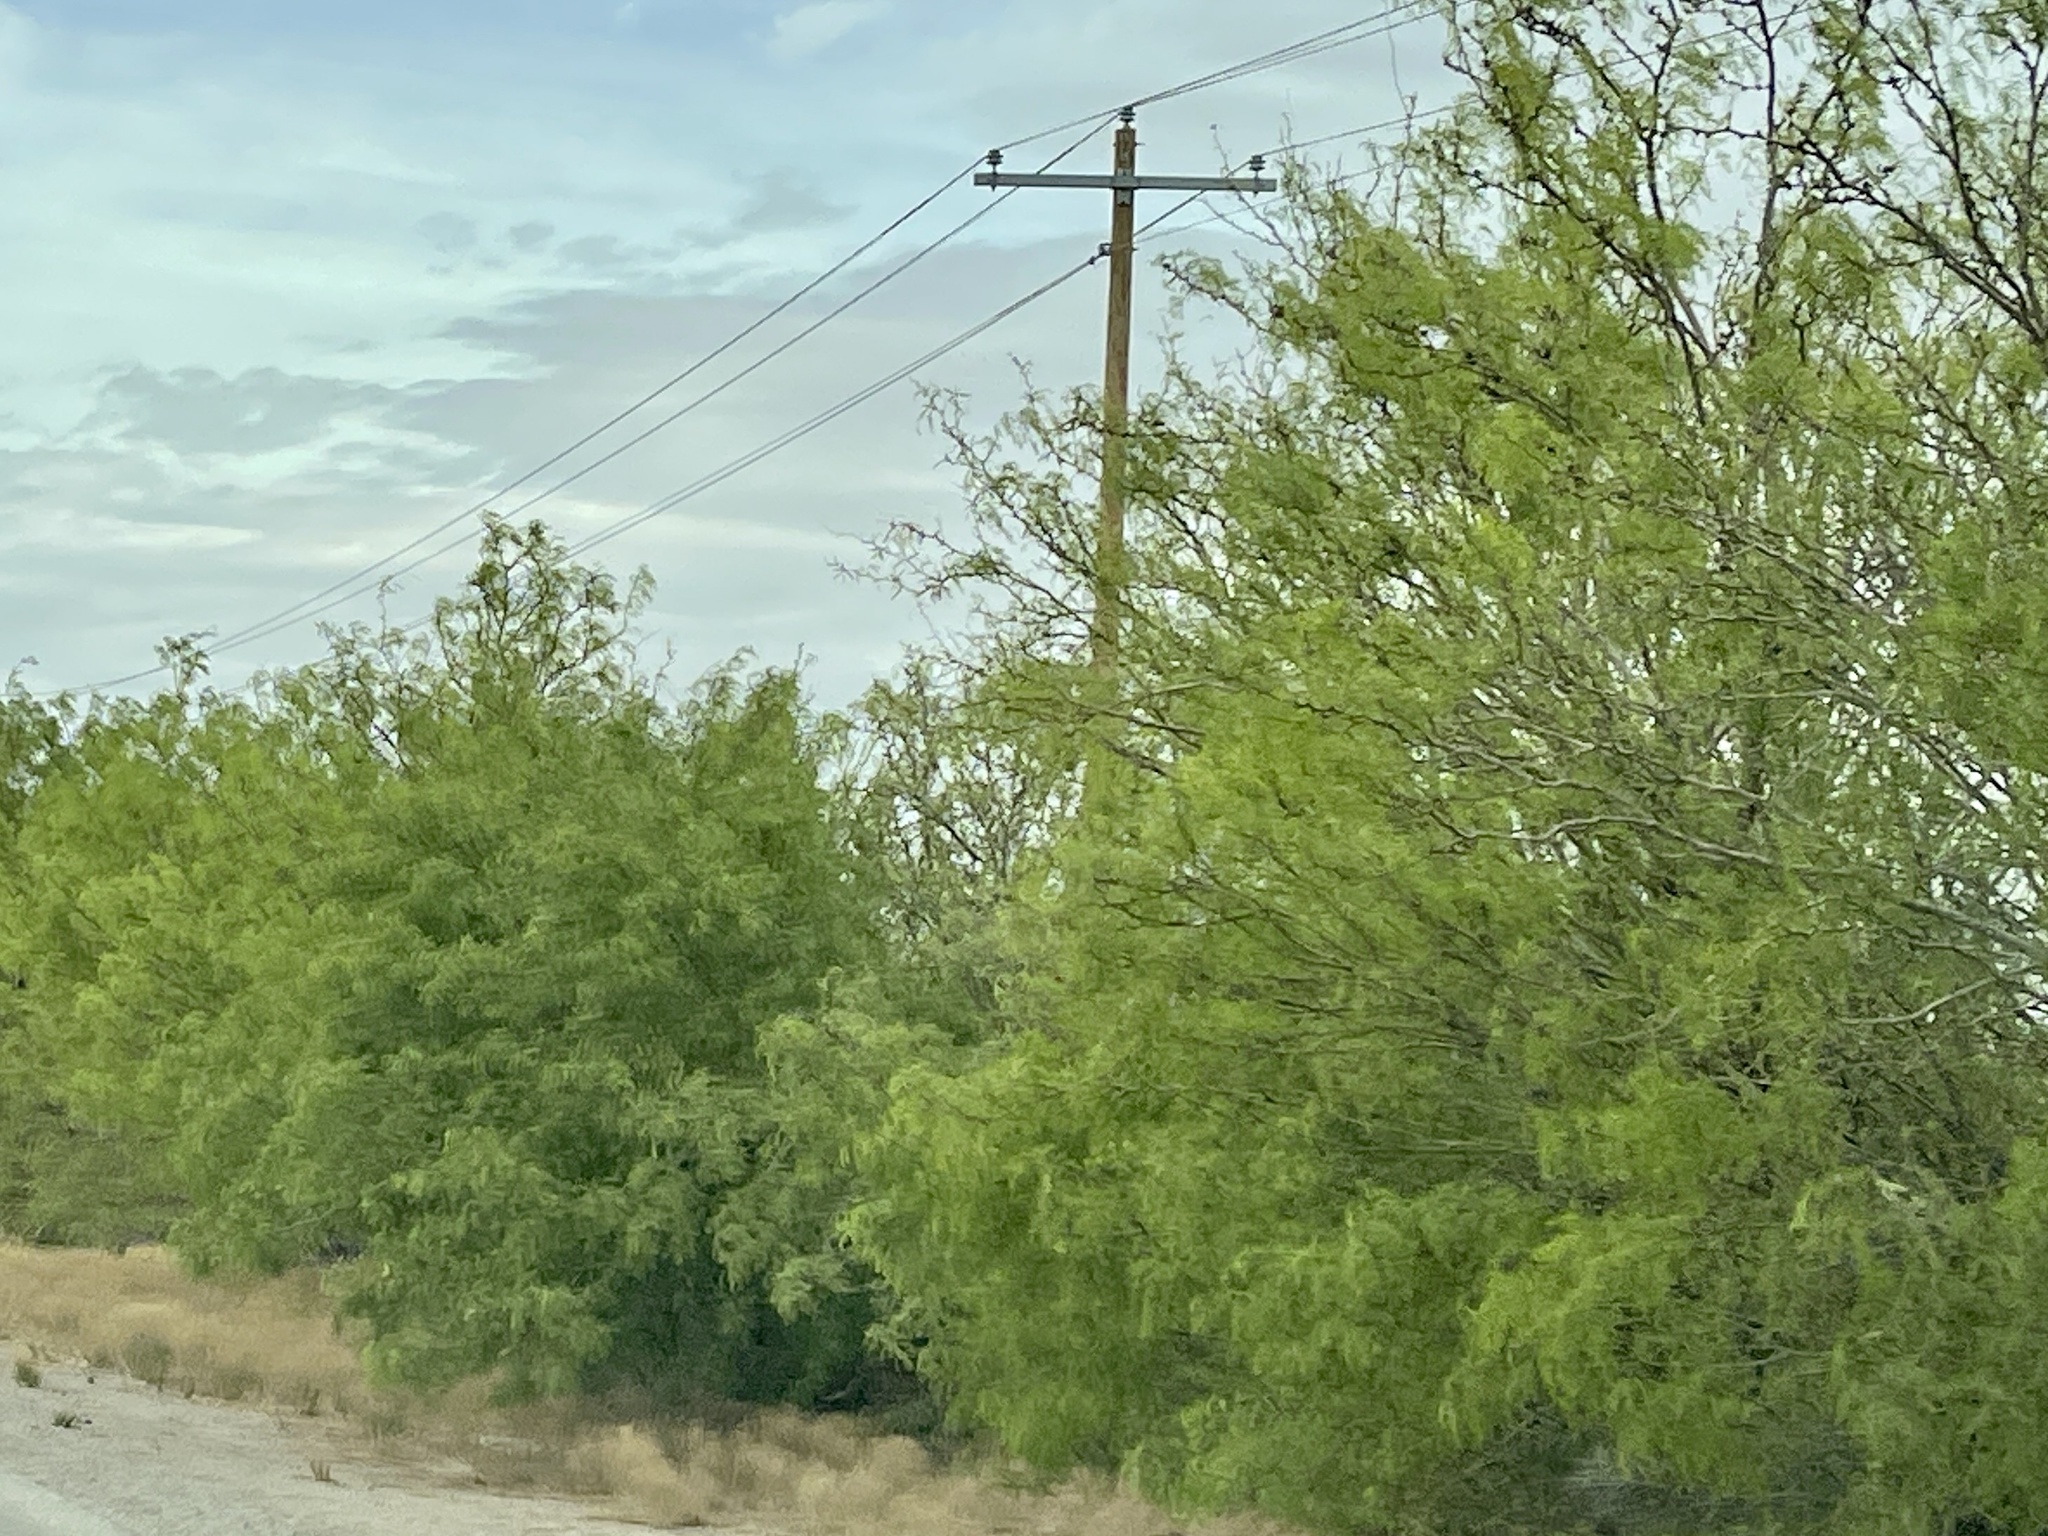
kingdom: Plantae
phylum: Tracheophyta
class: Magnoliopsida
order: Fabales
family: Fabaceae
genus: Prosopis
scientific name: Prosopis glandulosa
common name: Honey mesquite
